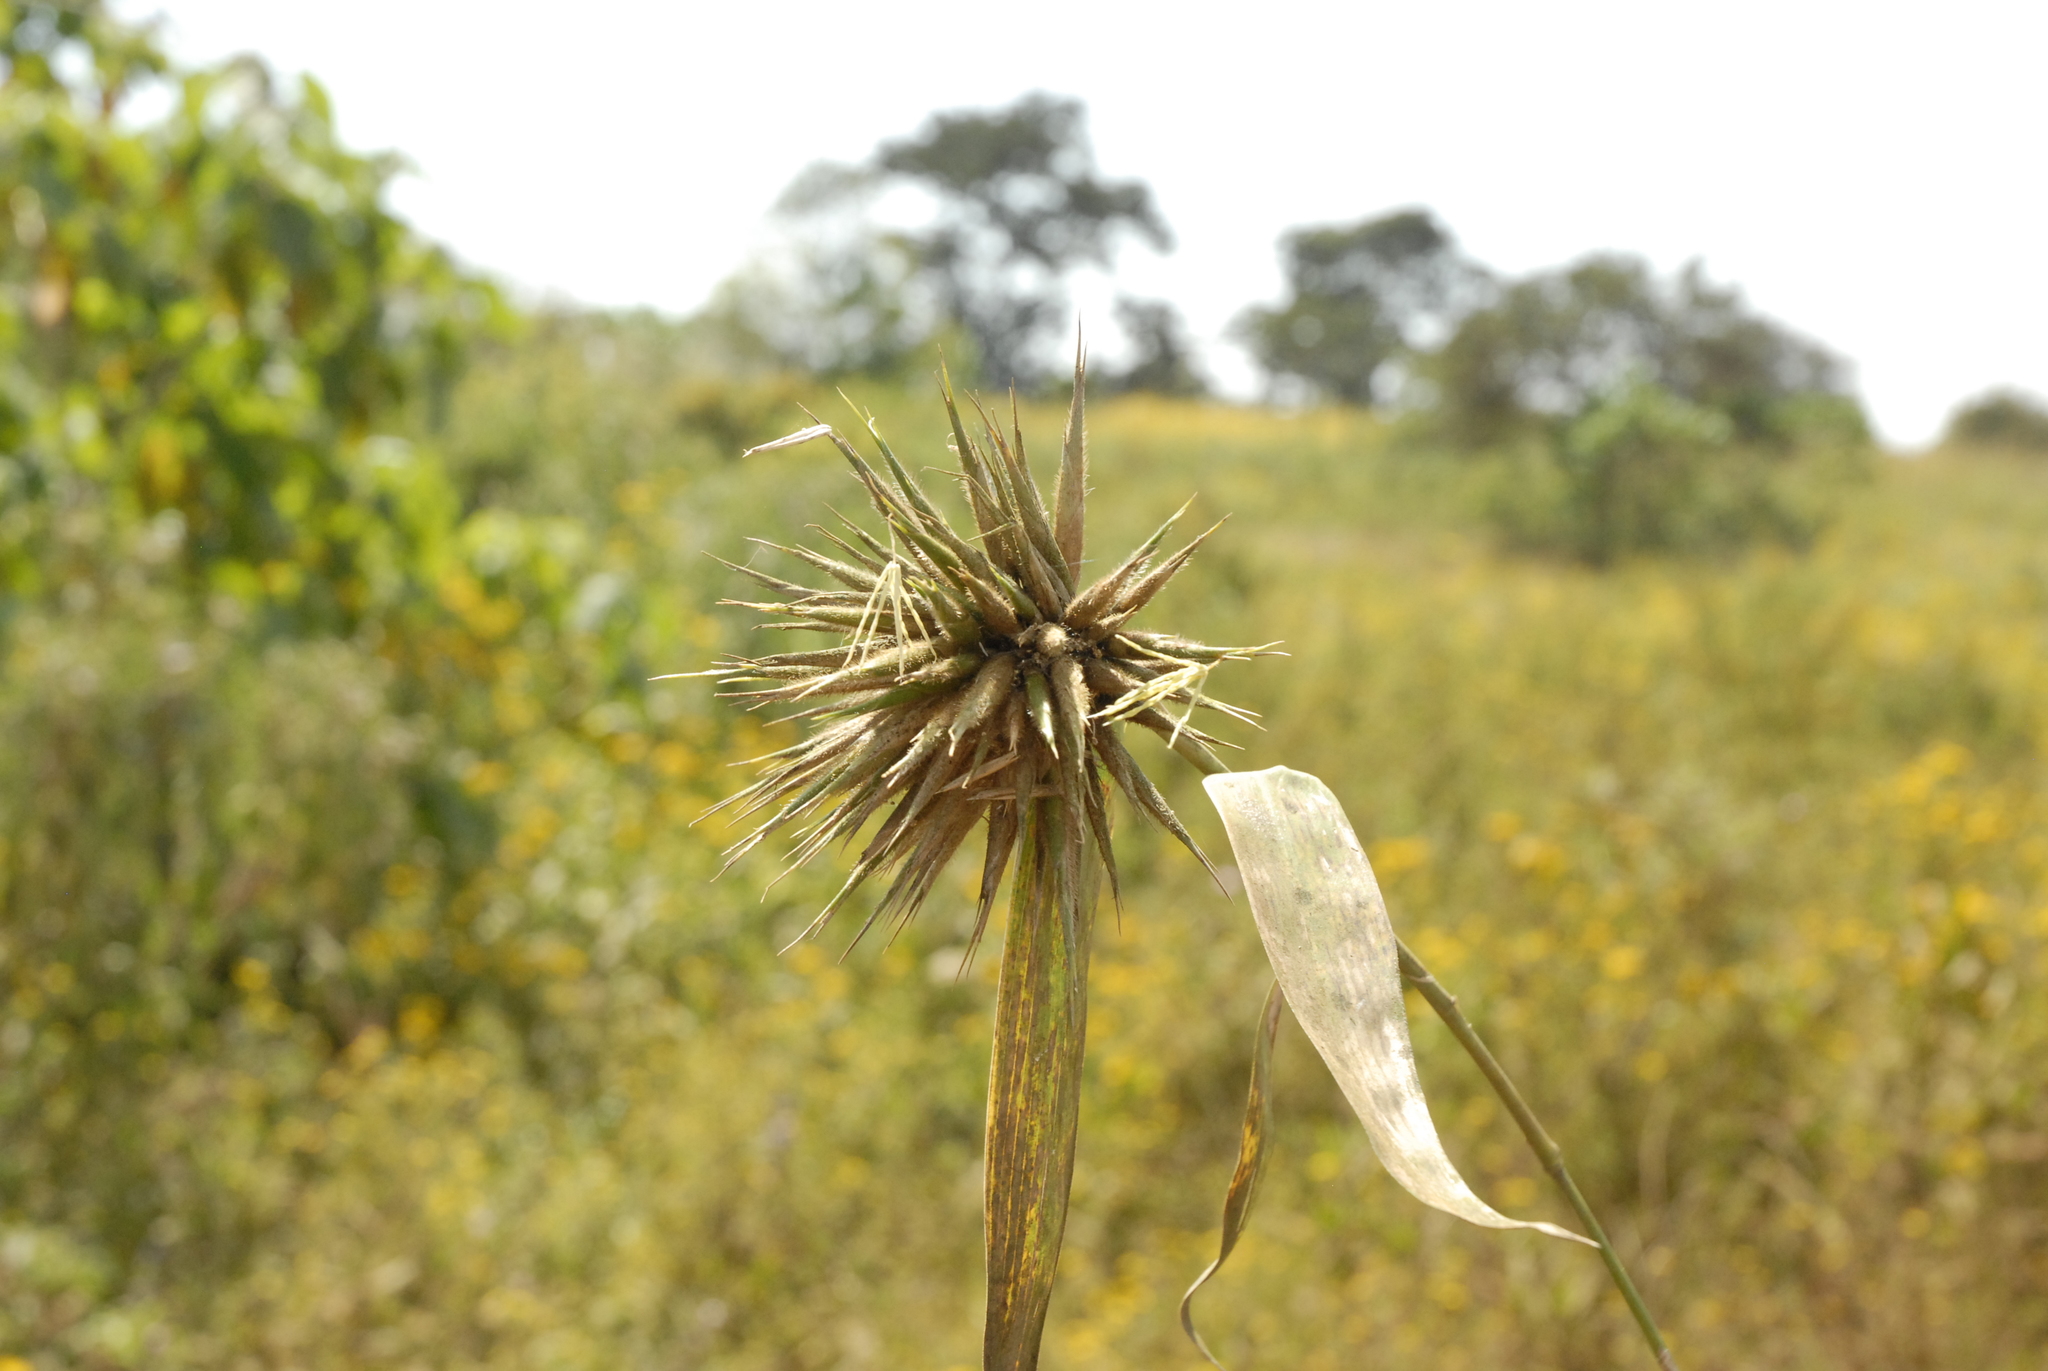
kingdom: Plantae
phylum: Tracheophyta
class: Liliopsida
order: Poales
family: Poaceae
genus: Oxytenanthera
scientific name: Oxytenanthera abyssinica
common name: Wine bamboo
